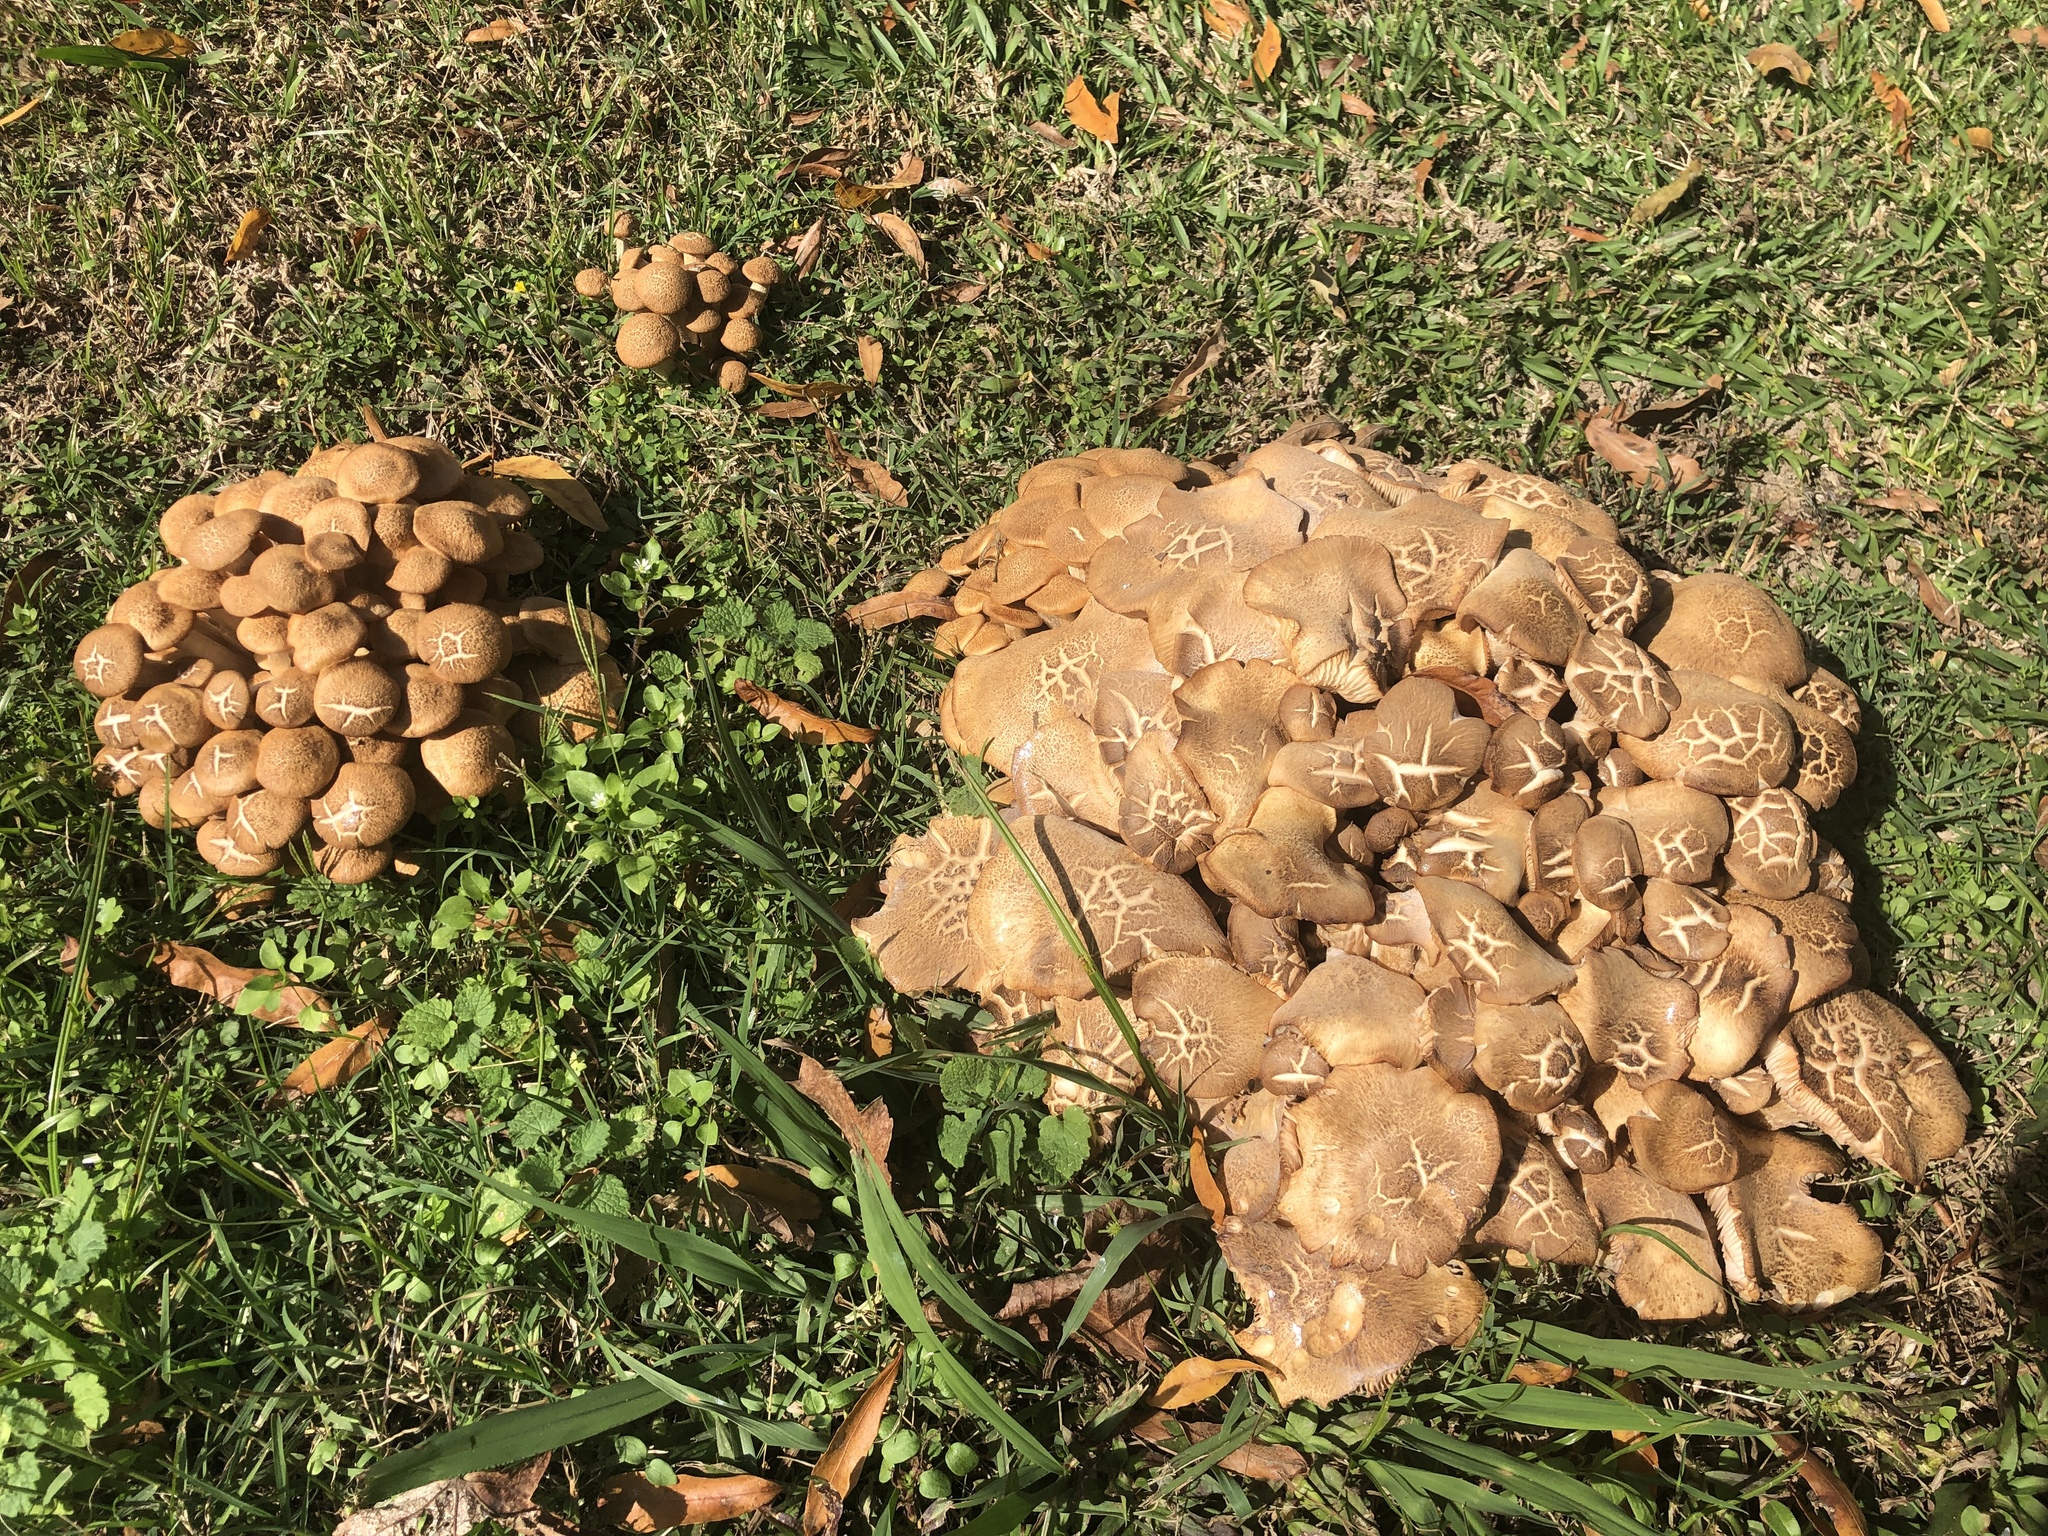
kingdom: Fungi
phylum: Basidiomycota
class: Agaricomycetes
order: Agaricales
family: Physalacriaceae
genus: Desarmillaria
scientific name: Desarmillaria caespitosa
